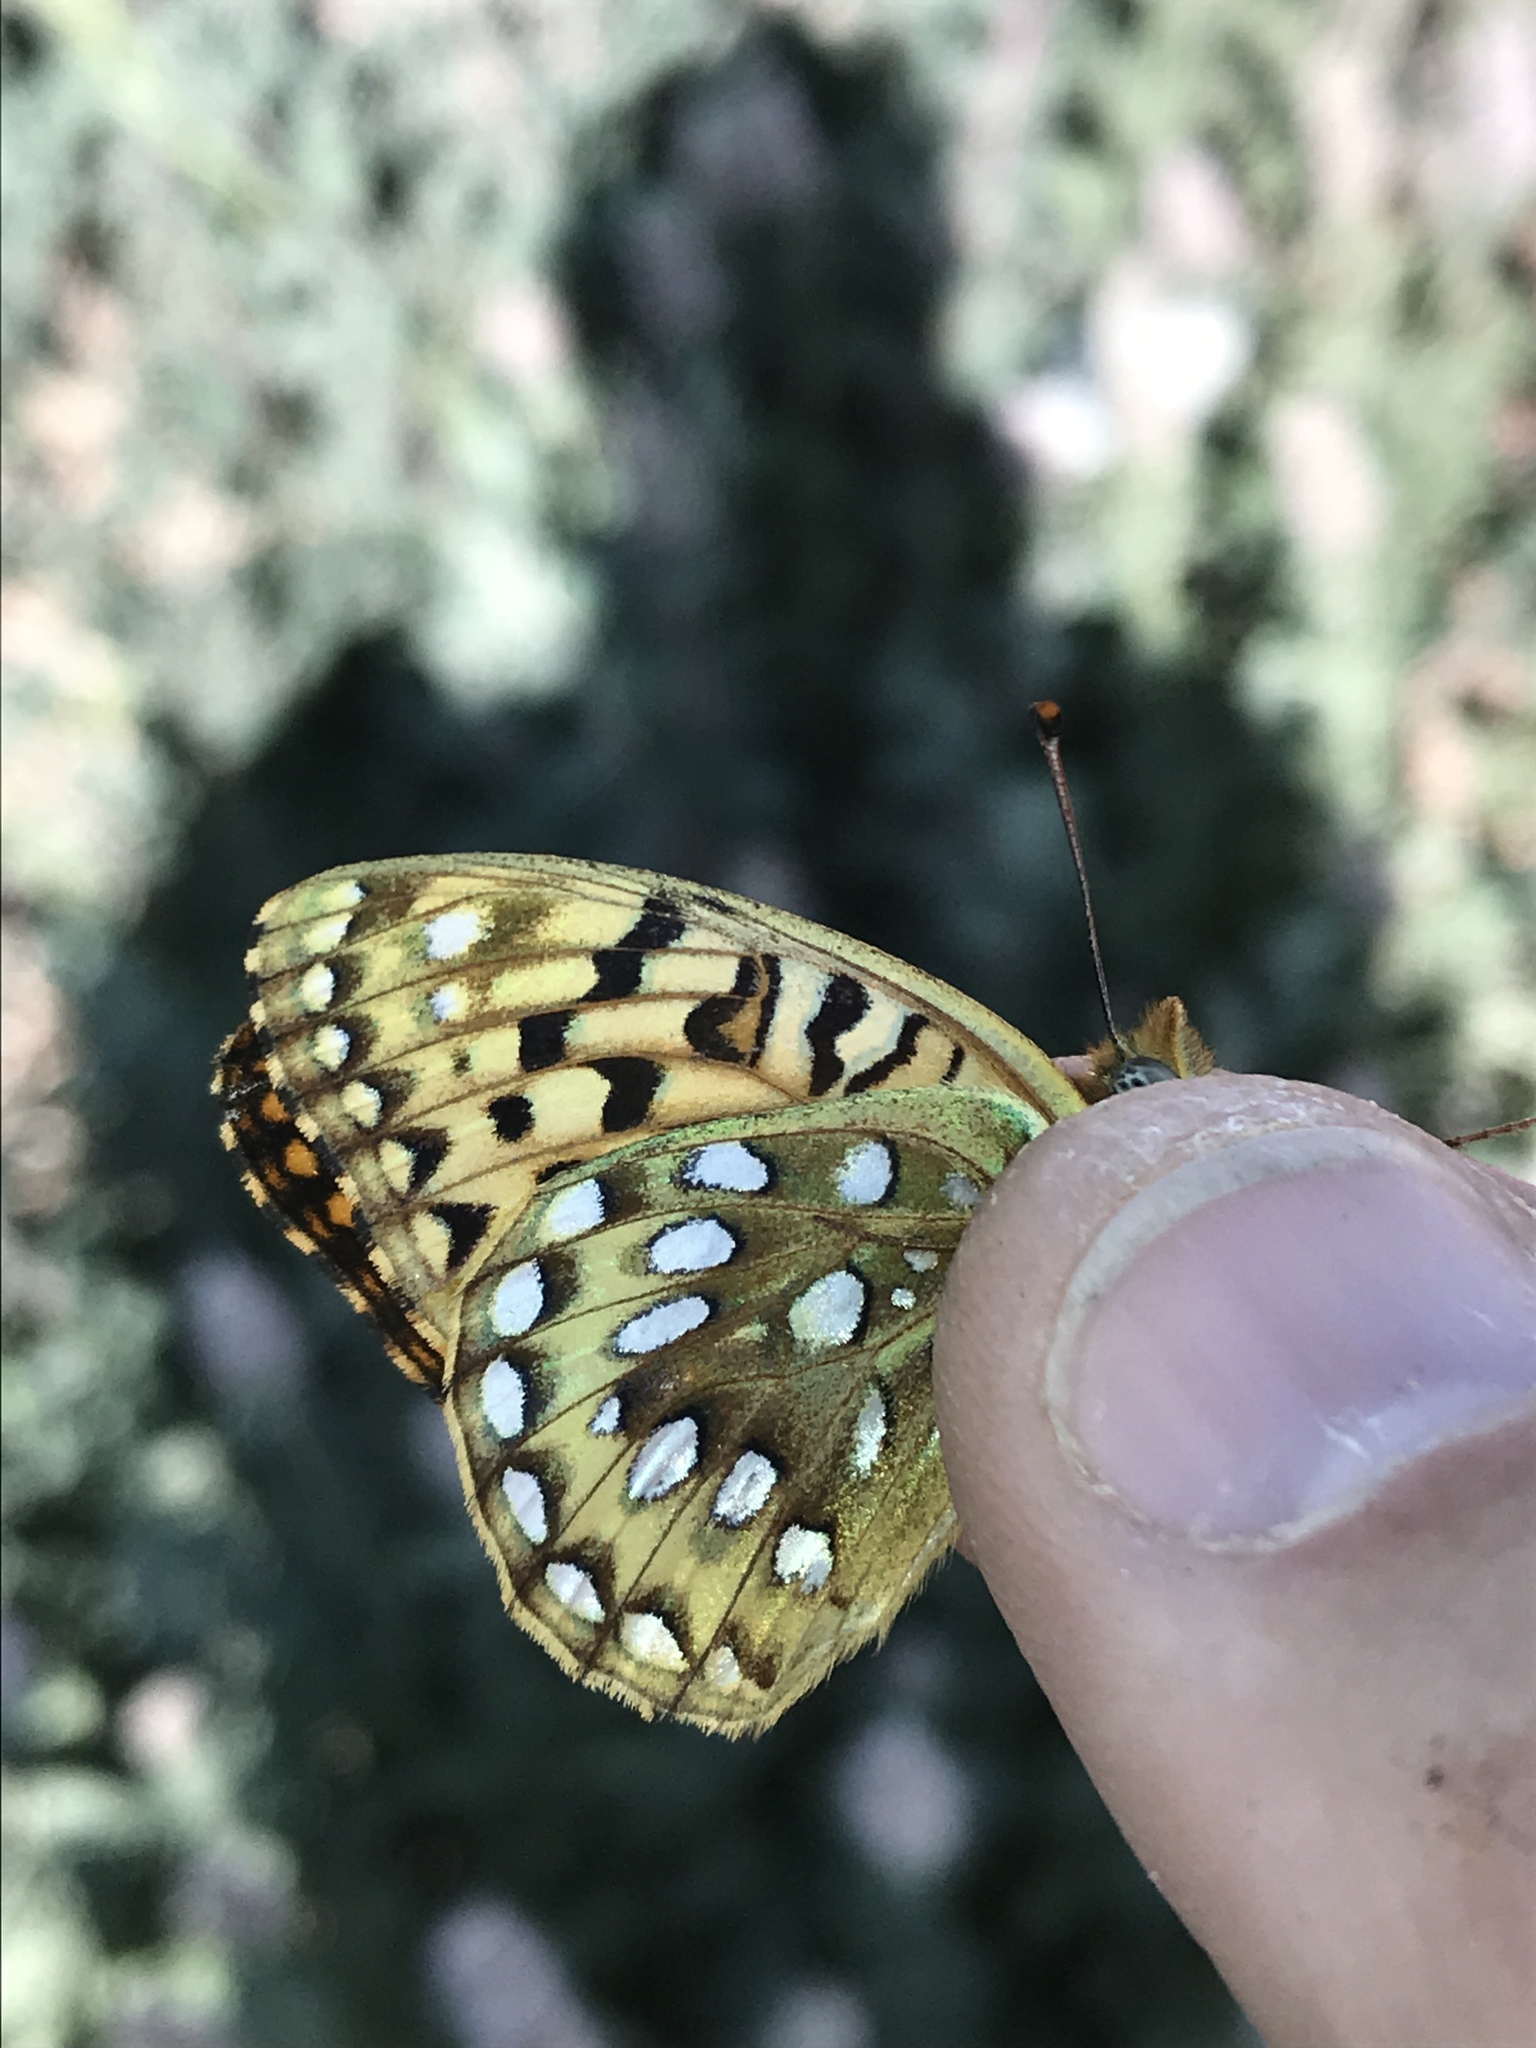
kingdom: Animalia
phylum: Arthropoda
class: Insecta
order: Lepidoptera
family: Nymphalidae
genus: Speyeria
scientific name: Speyeria egleis
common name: Great basin fritillary
